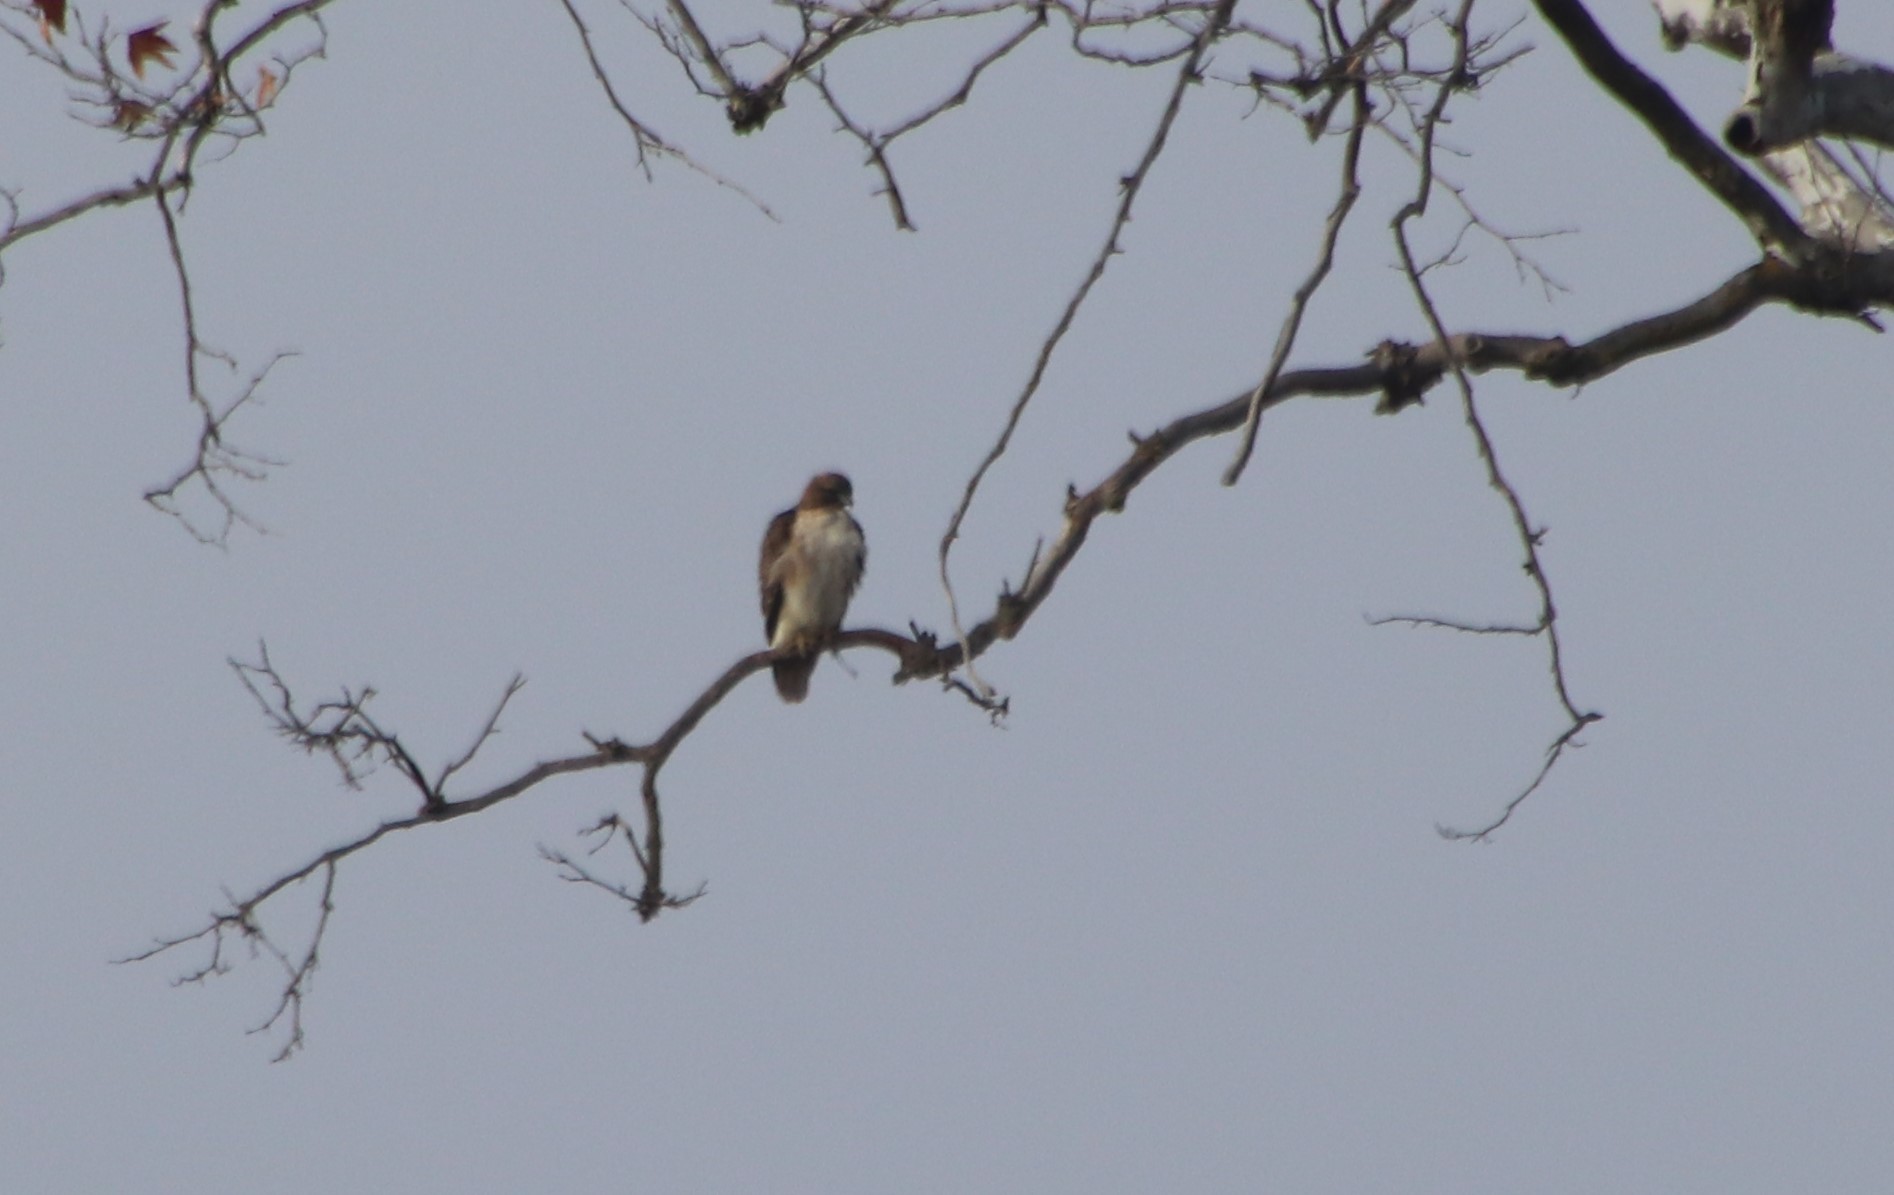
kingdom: Animalia
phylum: Chordata
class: Aves
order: Accipitriformes
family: Accipitridae
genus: Buteo
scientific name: Buteo jamaicensis
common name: Red-tailed hawk
